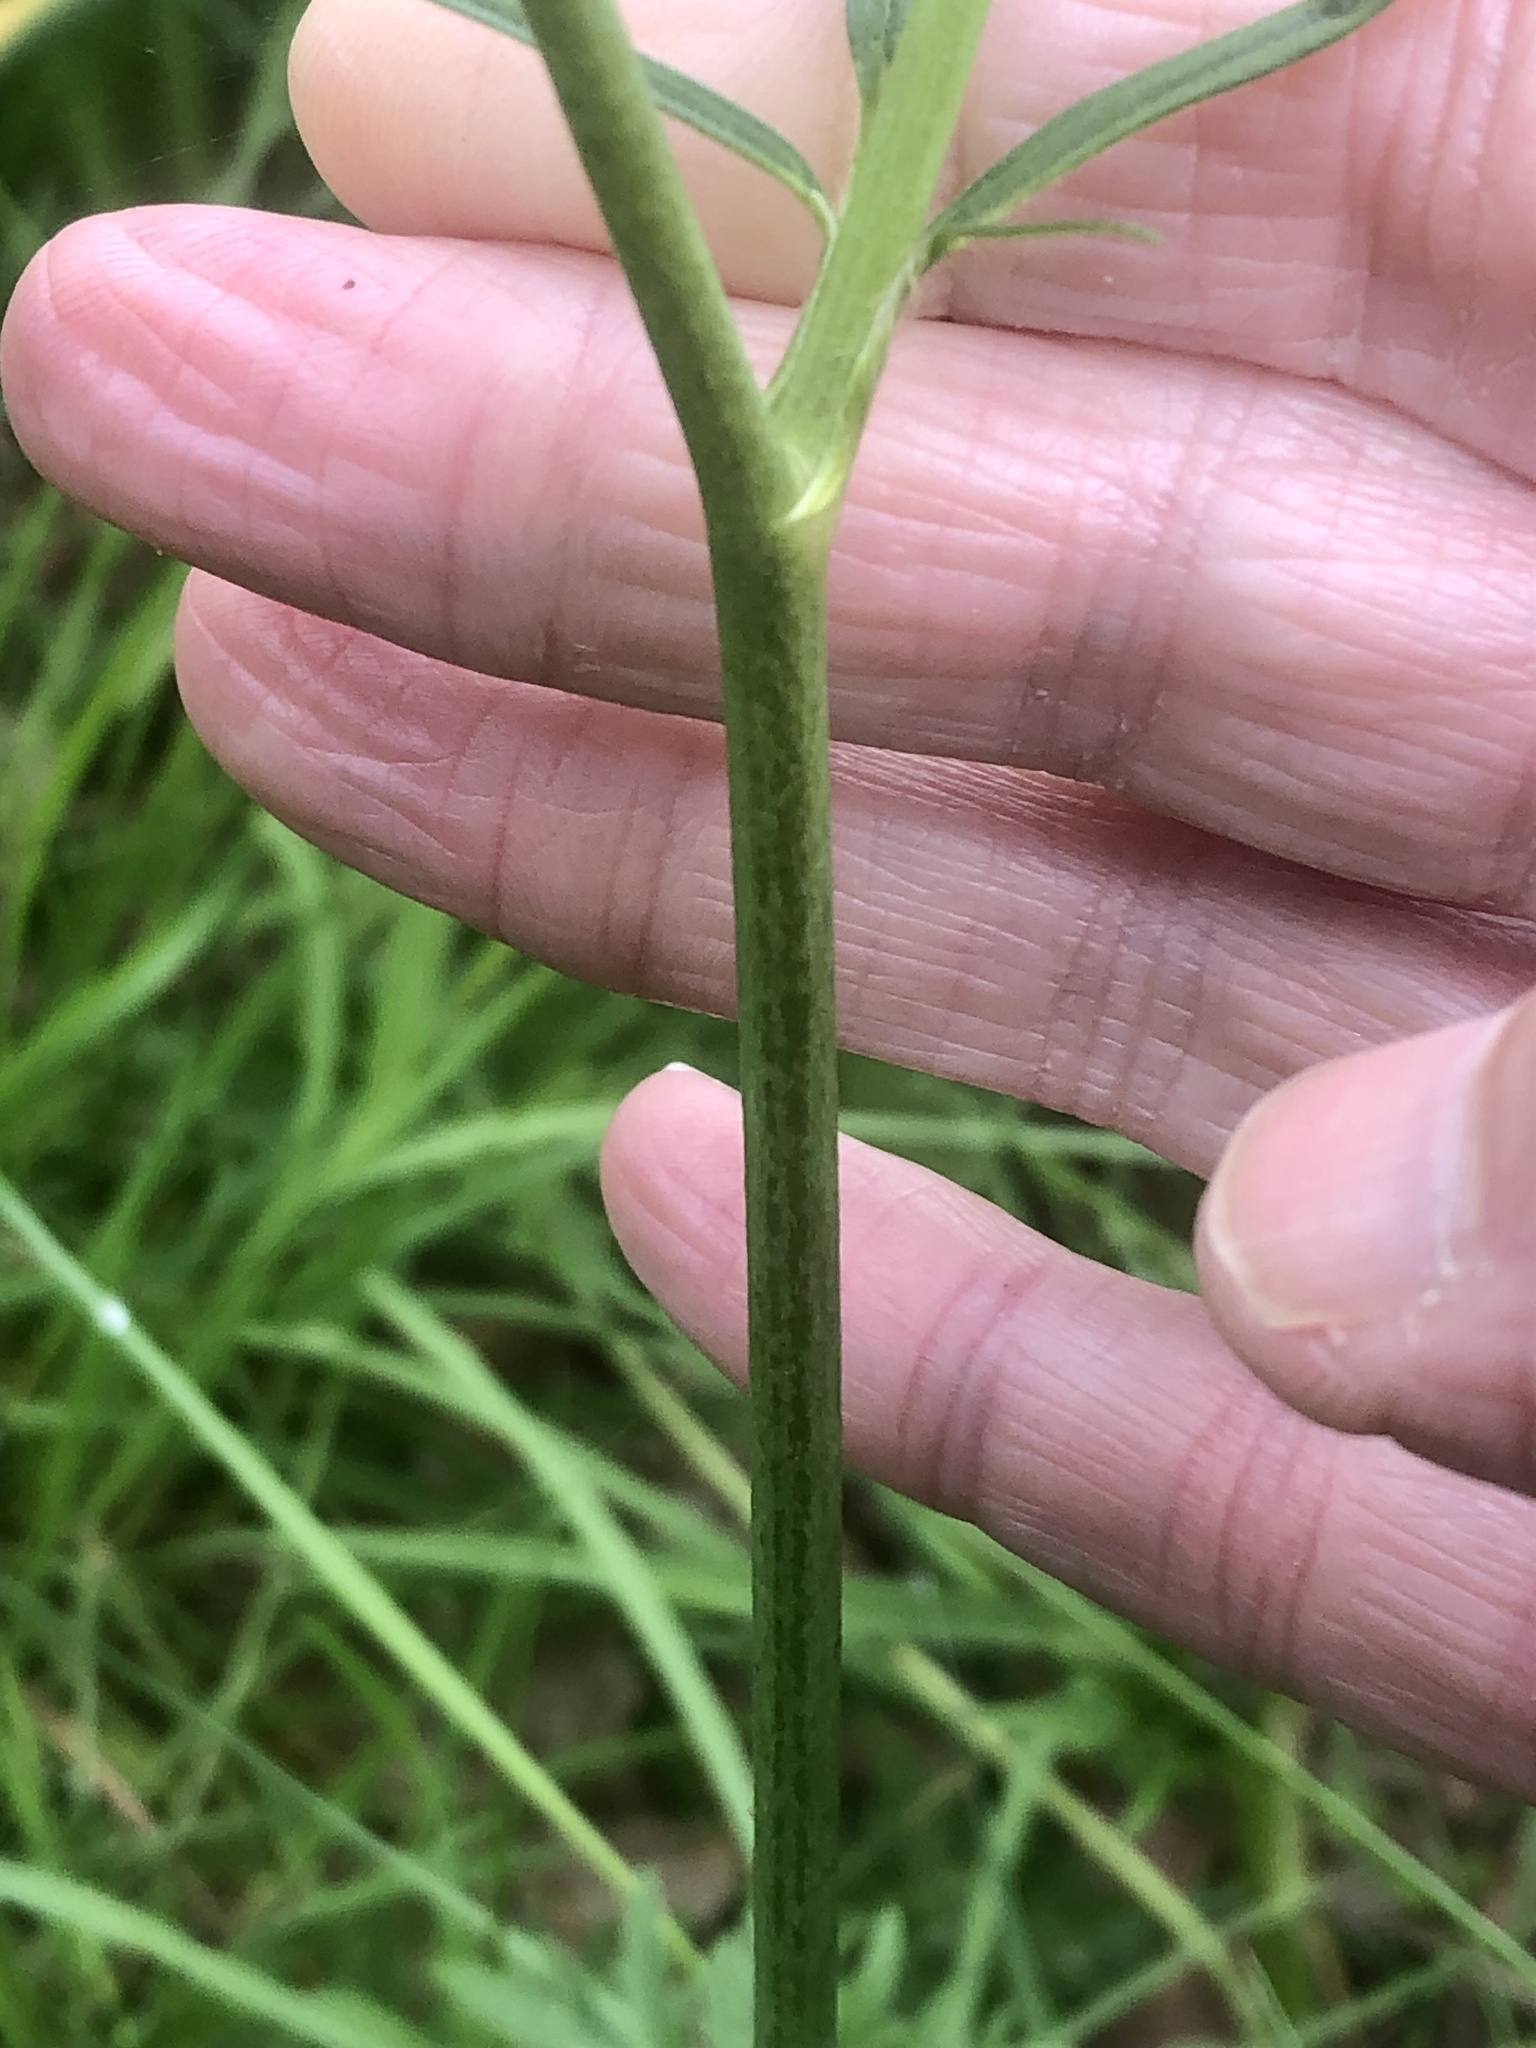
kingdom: Plantae
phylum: Tracheophyta
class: Magnoliopsida
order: Ranunculales
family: Ranunculaceae
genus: Ranunculus
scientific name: Ranunculus acris
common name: Meadow buttercup
